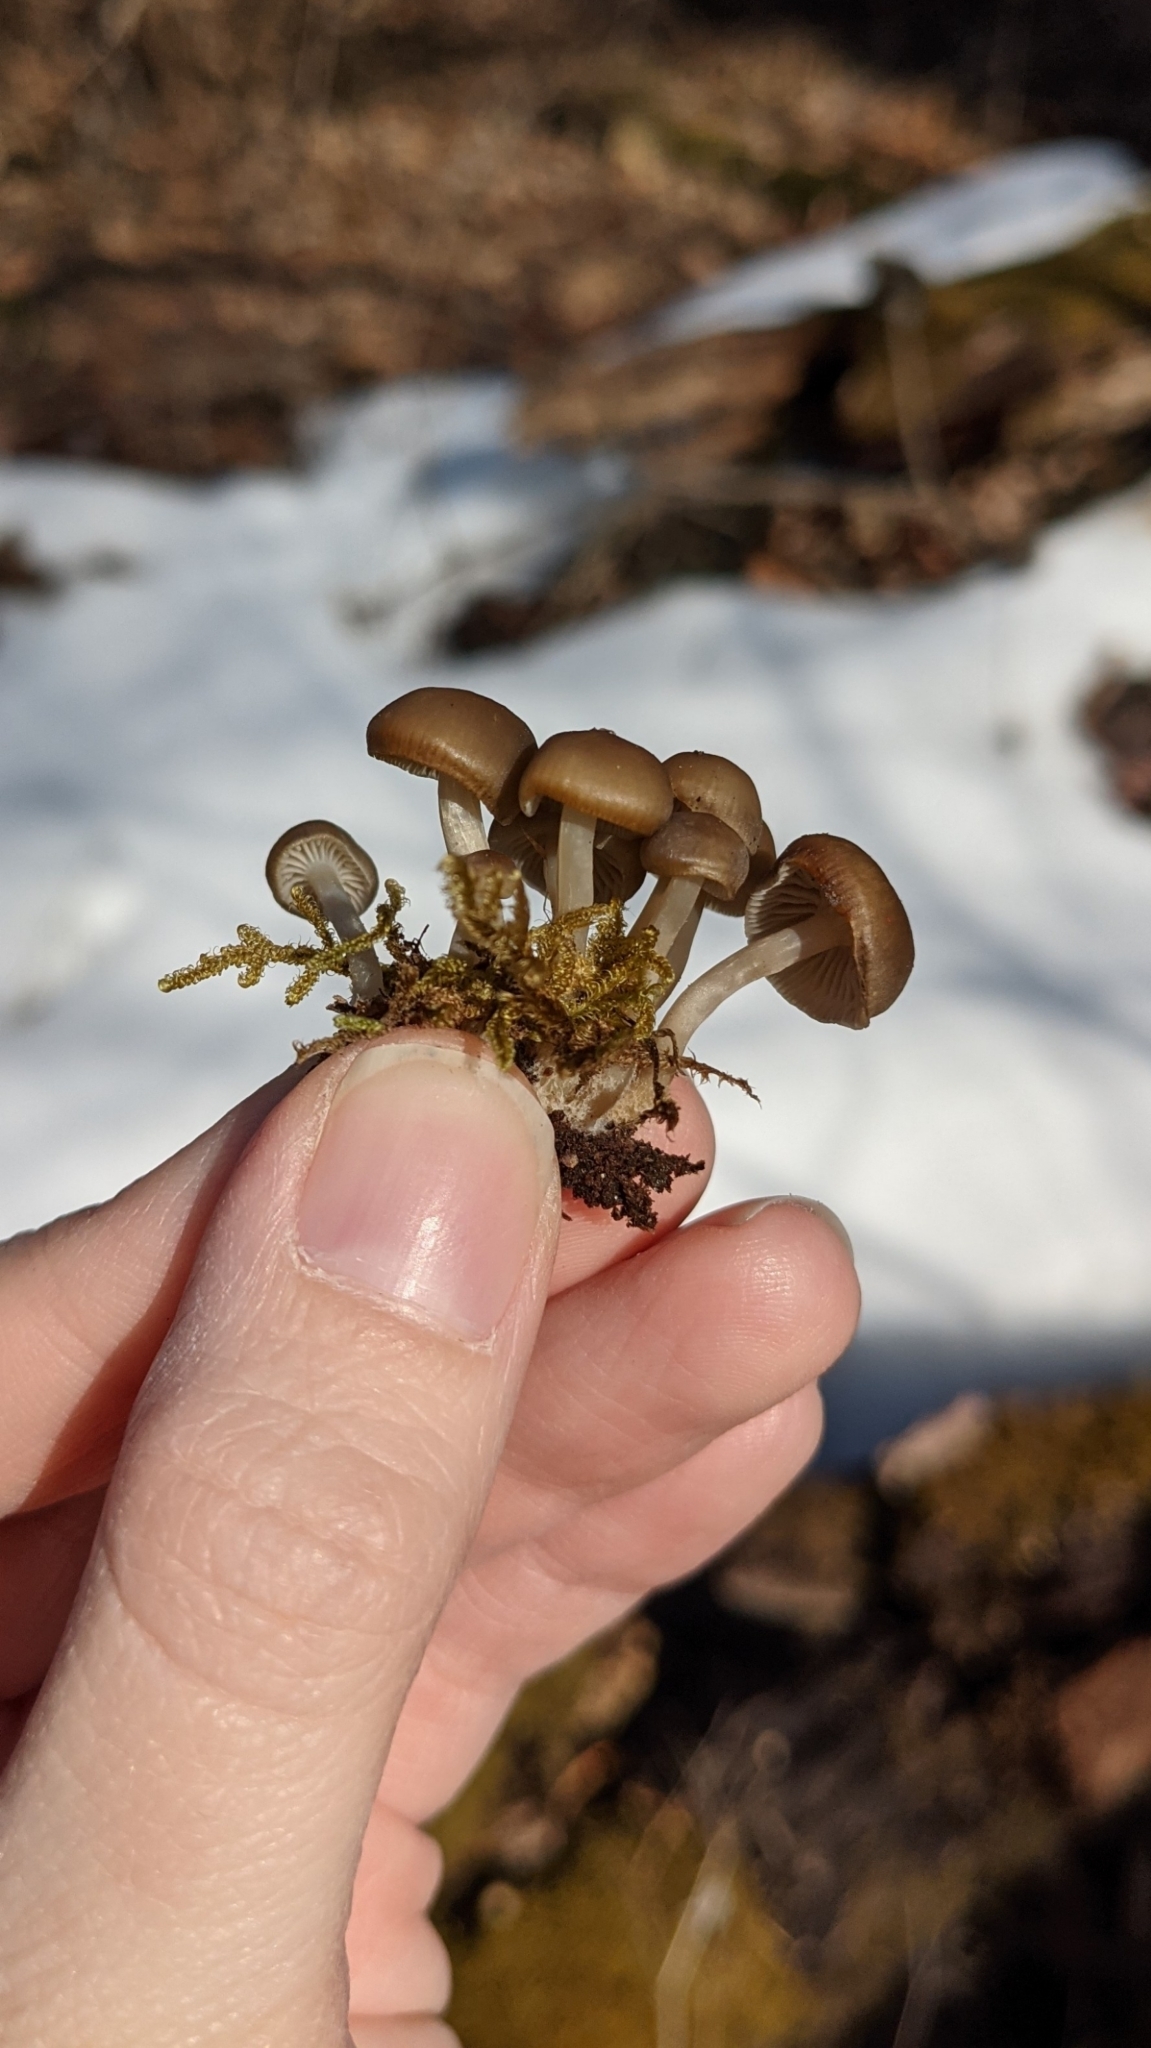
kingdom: Fungi
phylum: Basidiomycota
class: Agaricomycetes
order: Agaricales
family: Mycenaceae
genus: Mycena
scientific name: Mycena semivestipes
